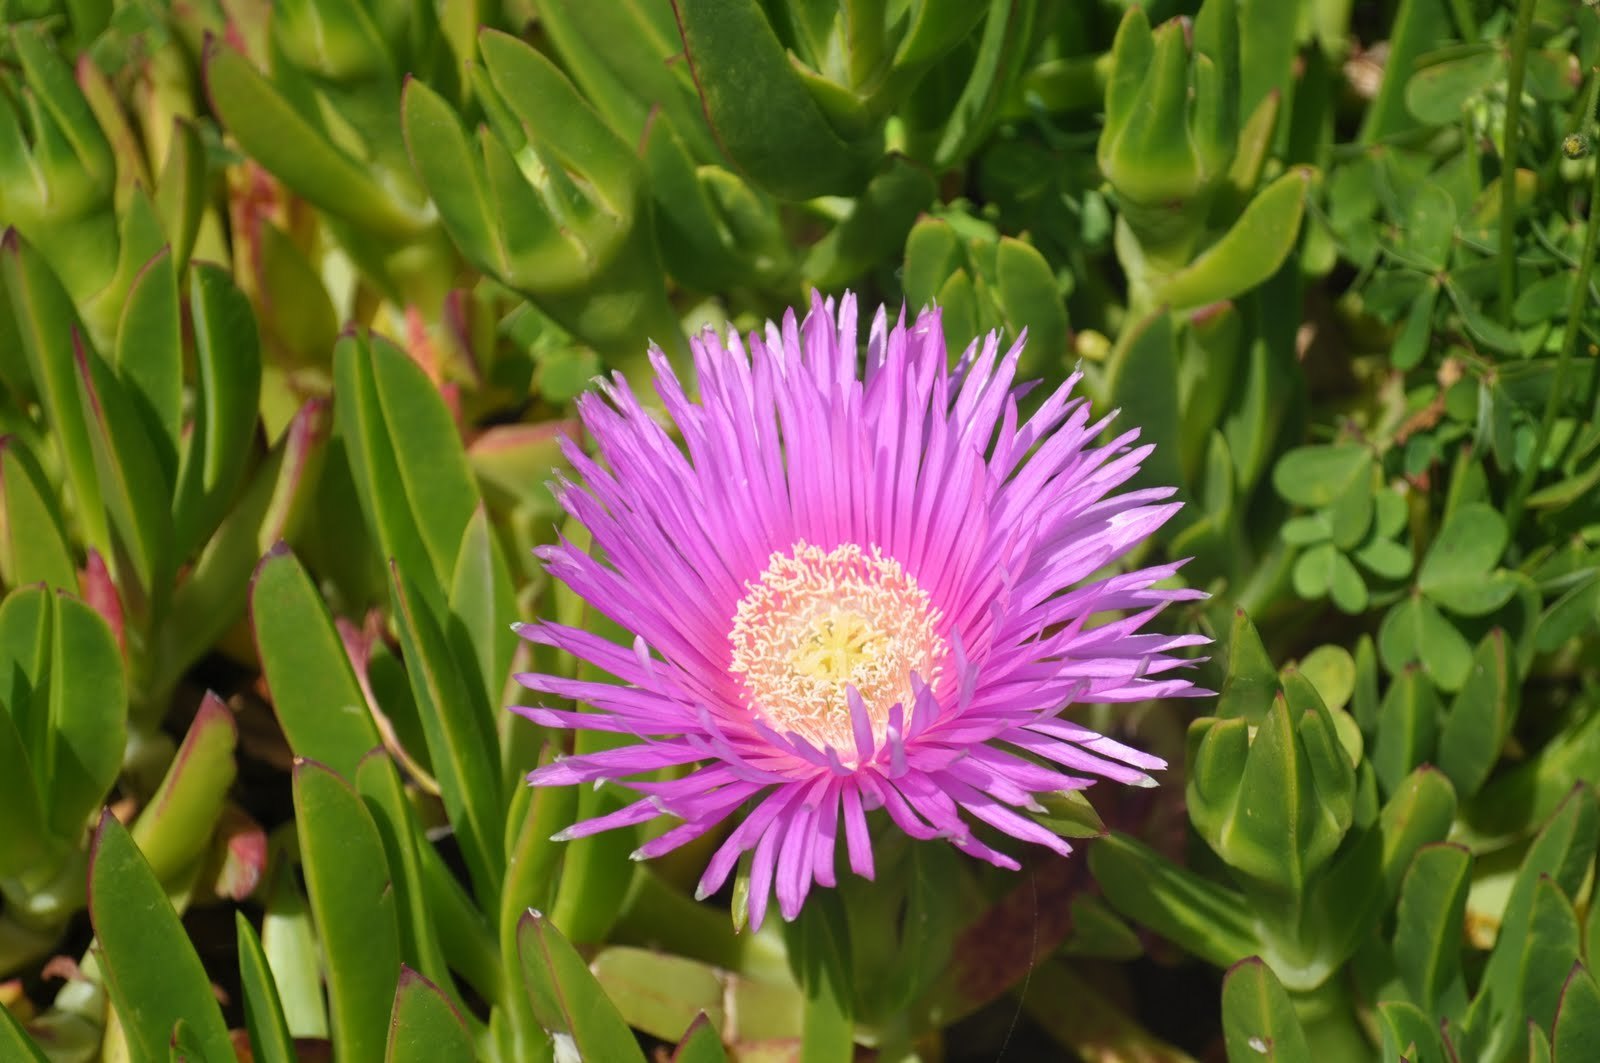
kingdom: Plantae
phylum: Tracheophyta
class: Magnoliopsida
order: Caryophyllales
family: Aizoaceae
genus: Carpobrotus
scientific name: Carpobrotus chilensis
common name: Sea fig
